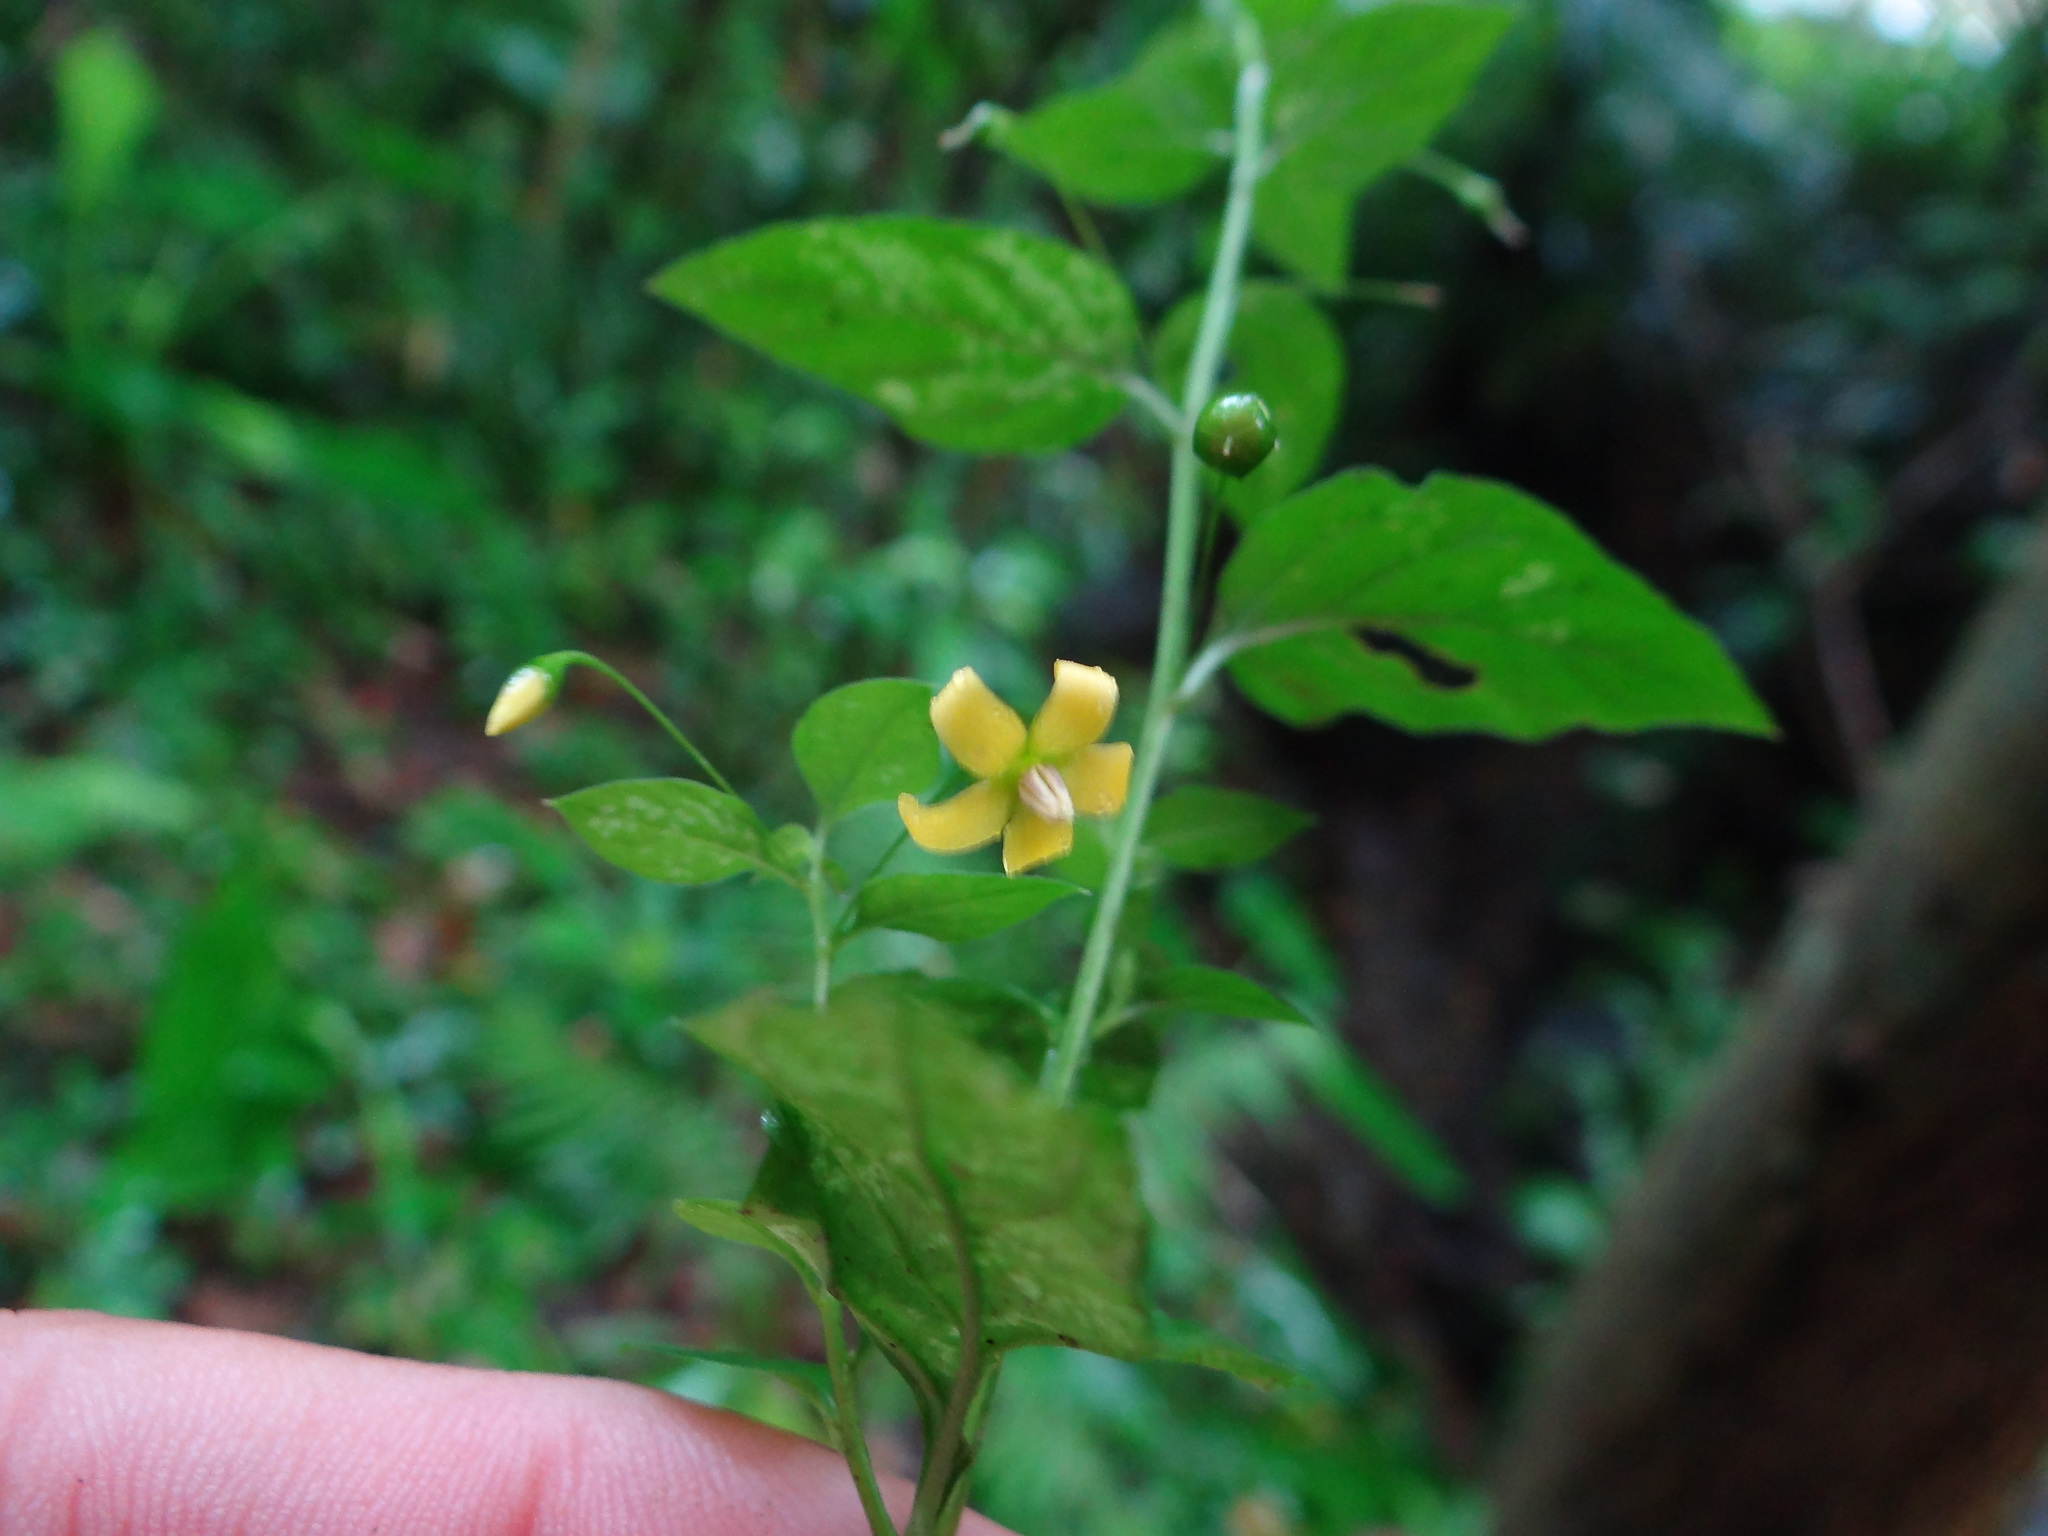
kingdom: Plantae
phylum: Tracheophyta
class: Magnoliopsida
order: Ericales
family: Primulaceae
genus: Lysimachia
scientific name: Lysimachia capillipes
